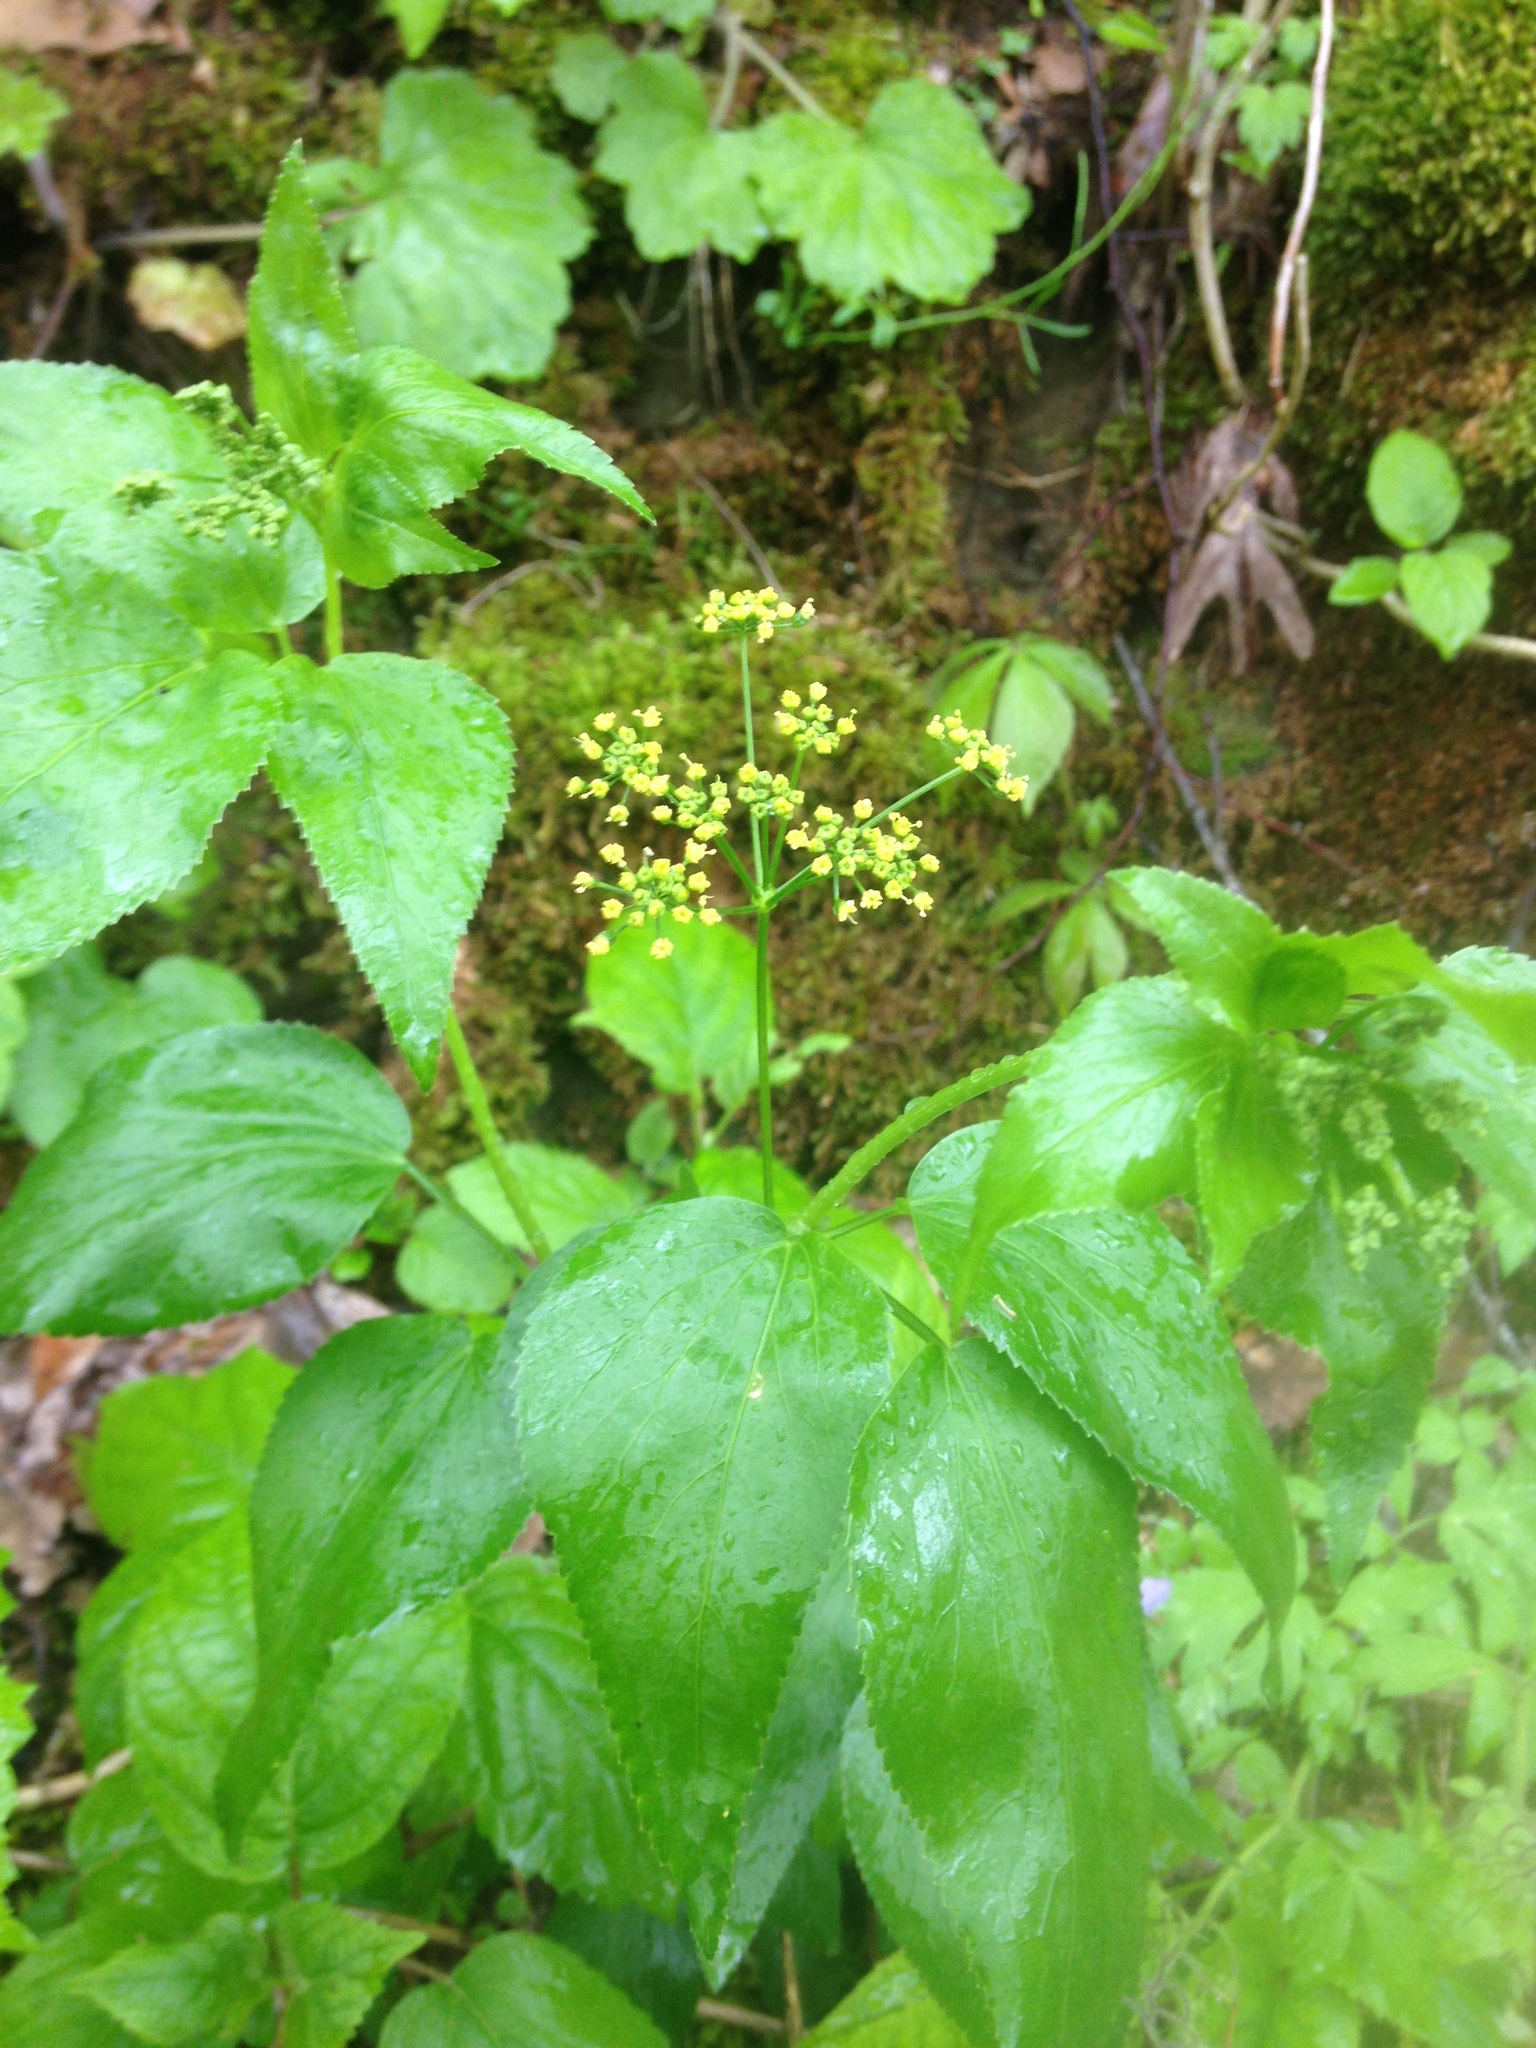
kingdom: Plantae
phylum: Tracheophyta
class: Magnoliopsida
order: Apiales
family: Apiaceae
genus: Thaspium
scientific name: Thaspium trifoliatum
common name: Purple meadow-parsnip
